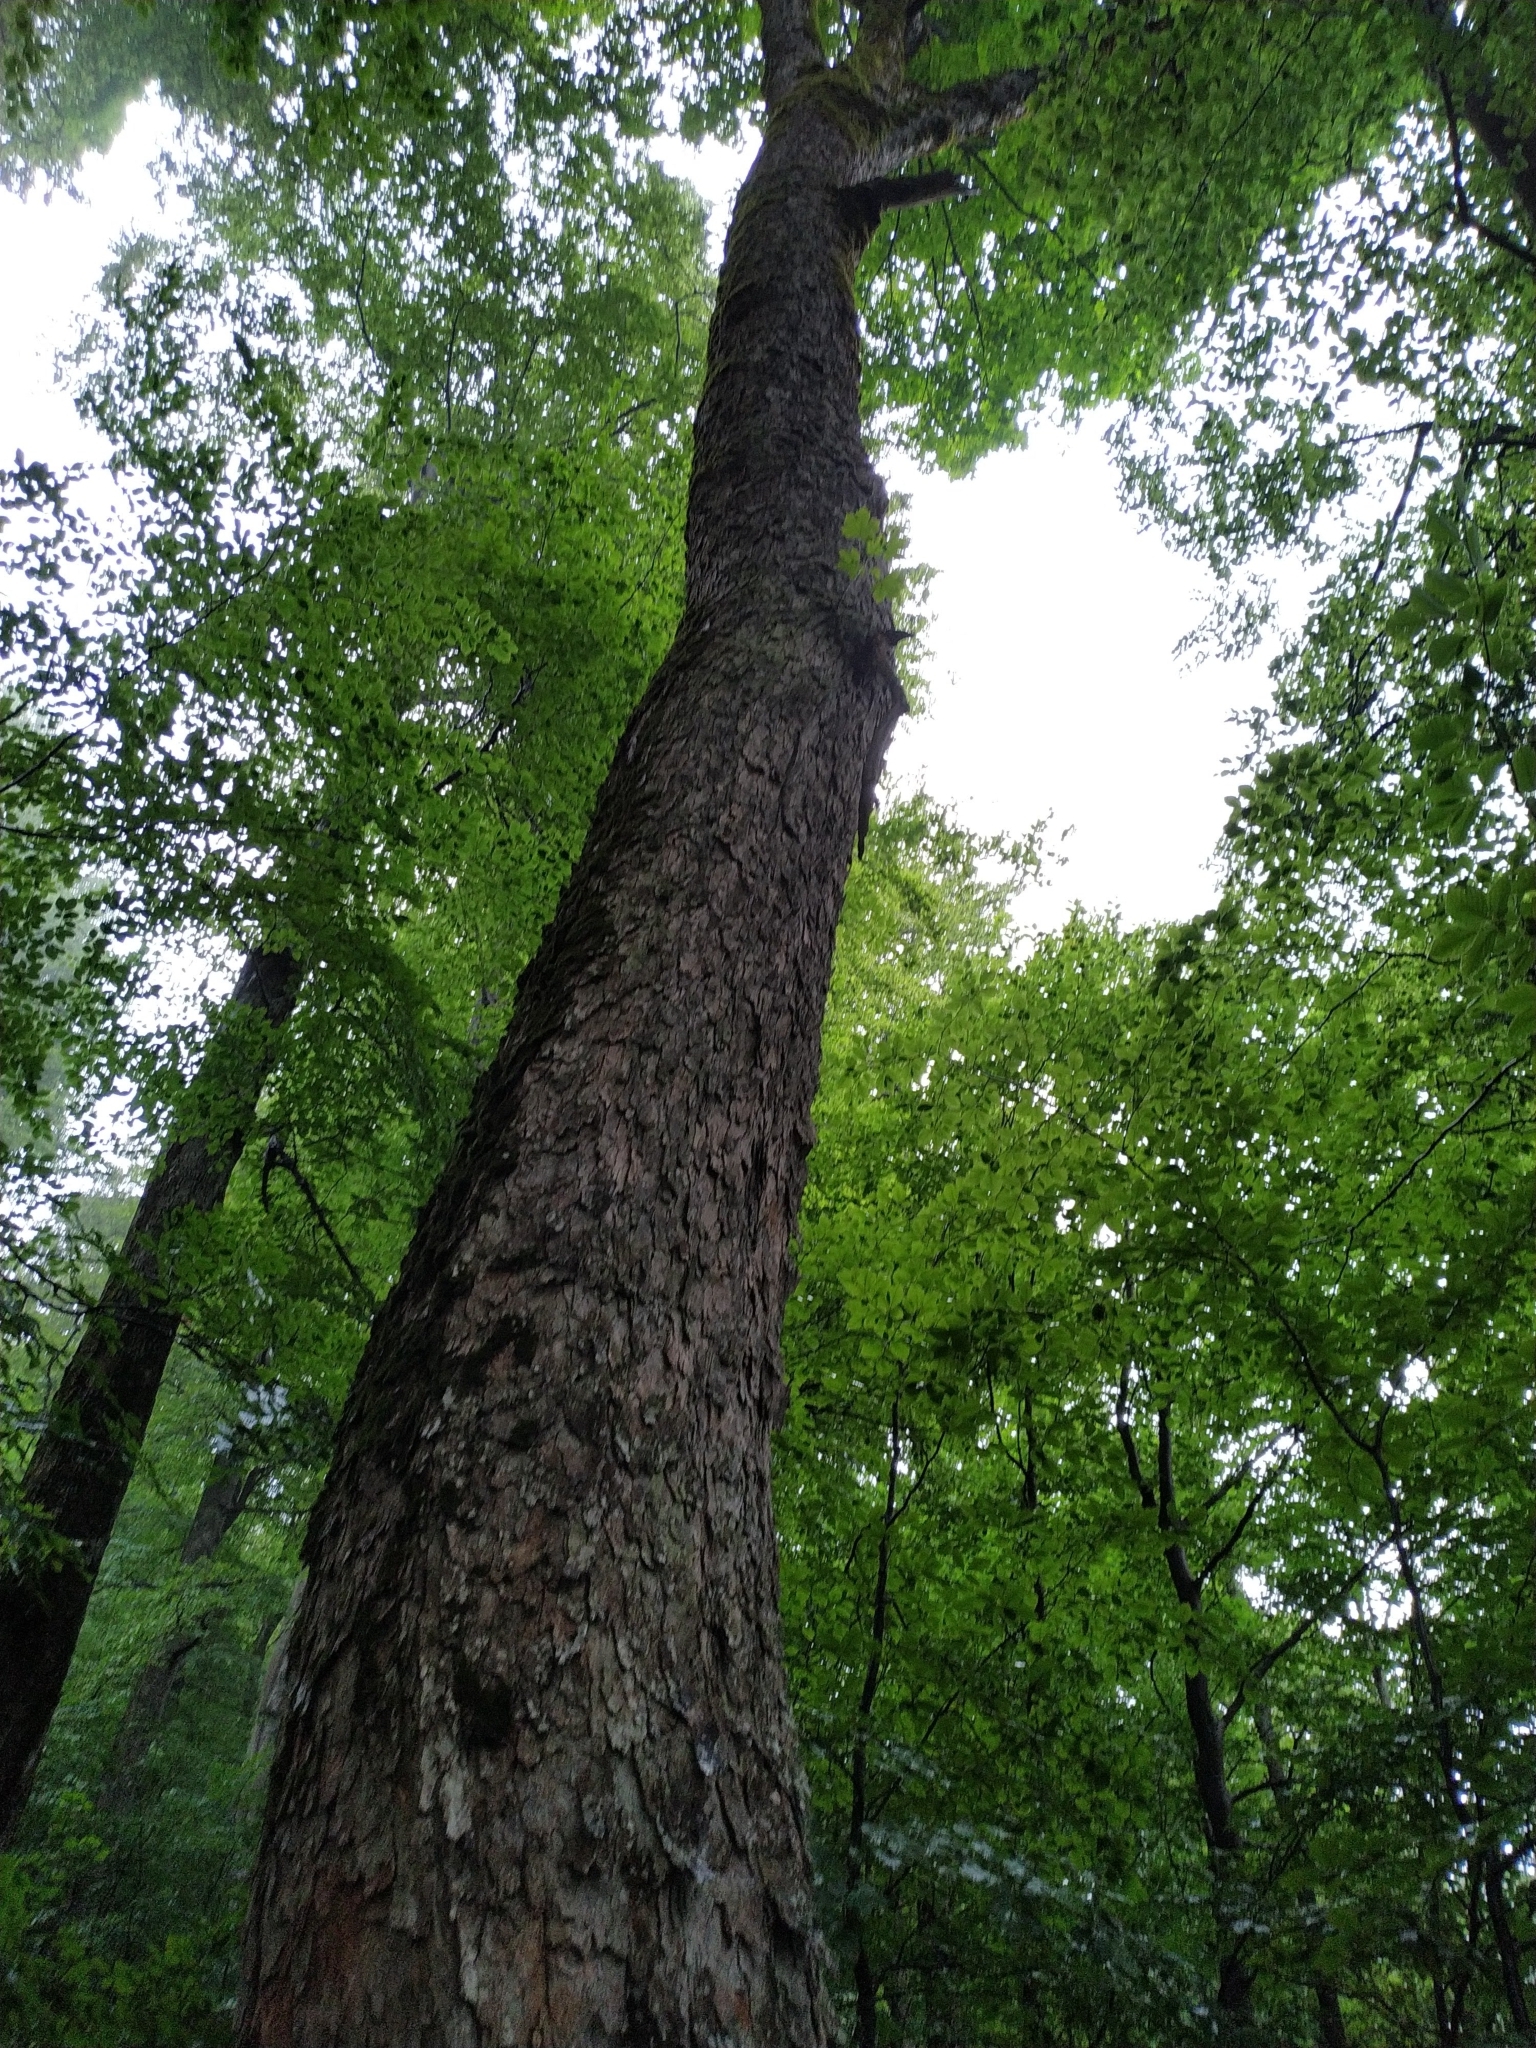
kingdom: Plantae
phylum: Tracheophyta
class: Magnoliopsida
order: Sapindales
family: Sapindaceae
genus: Acer
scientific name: Acer pseudoplatanus
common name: Sycamore
